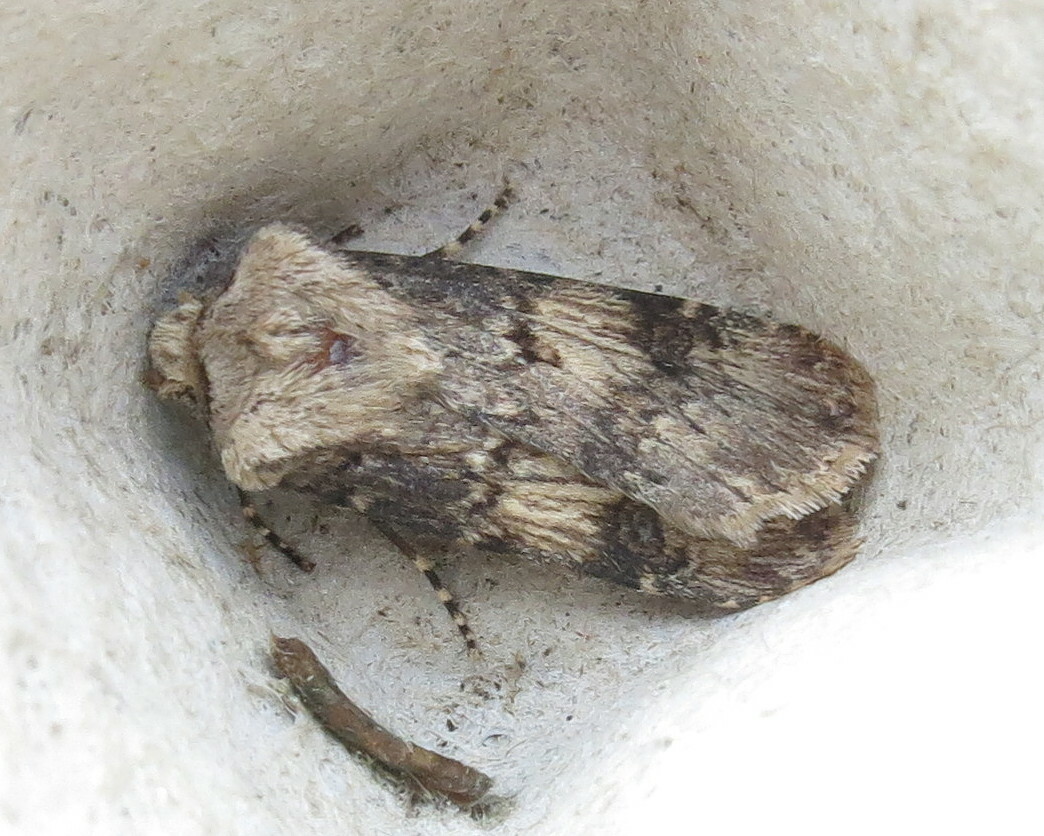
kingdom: Animalia
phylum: Arthropoda
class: Insecta
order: Lepidoptera
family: Noctuidae
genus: Agrotis
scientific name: Agrotis puta
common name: Shuttle-shaped dart
